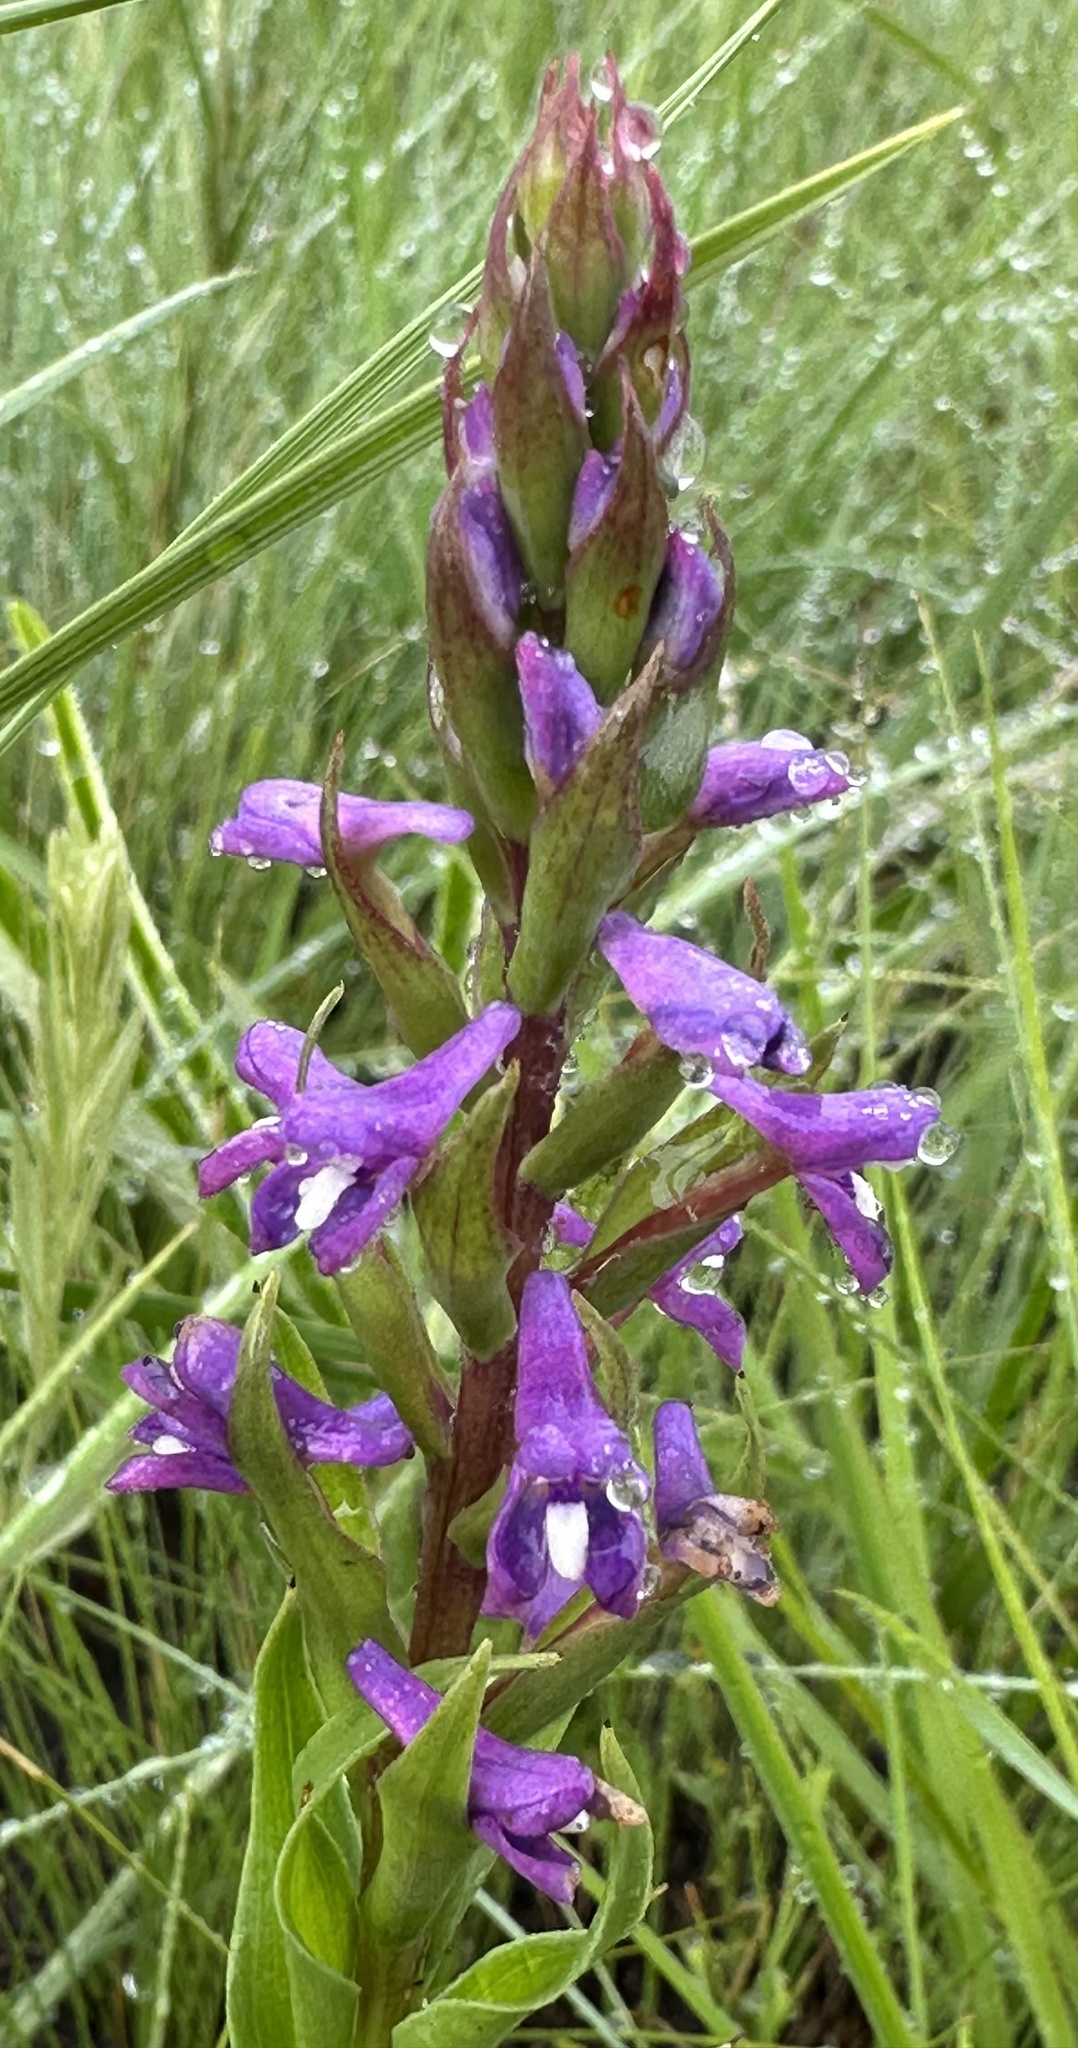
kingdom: Plantae
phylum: Tracheophyta
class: Liliopsida
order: Asparagales
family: Orchidaceae
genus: Disa
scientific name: Disa stachyoides
